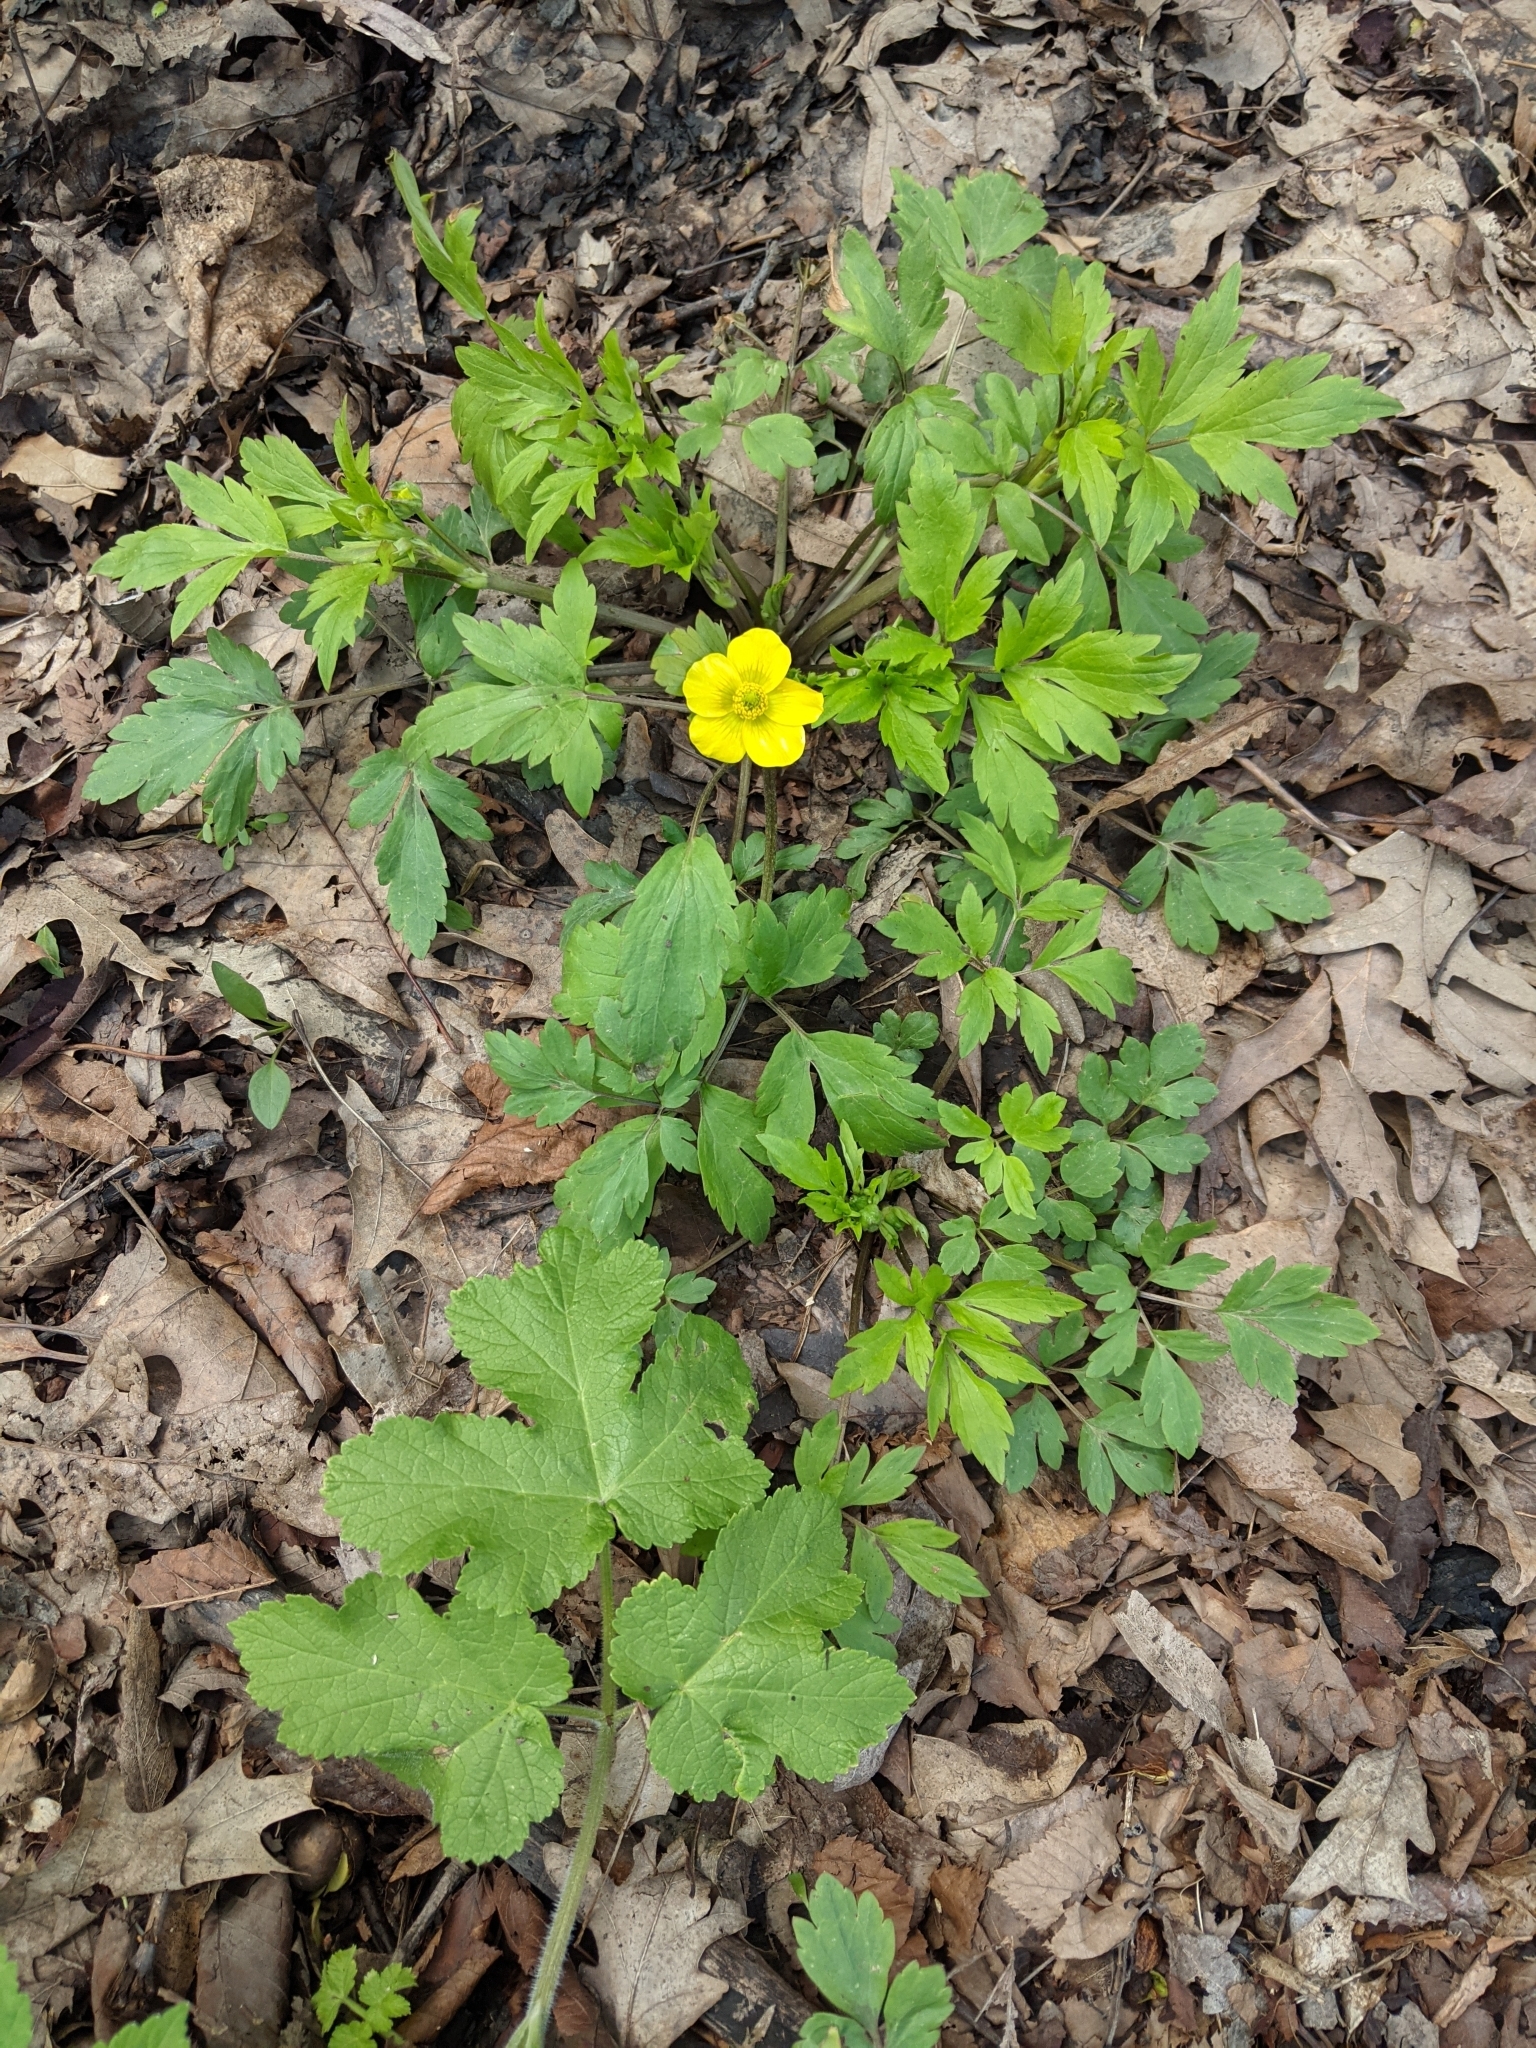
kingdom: Plantae
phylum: Tracheophyta
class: Magnoliopsida
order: Ranunculales
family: Ranunculaceae
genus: Ranunculus
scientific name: Ranunculus hispidus
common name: Bristly buttercup
